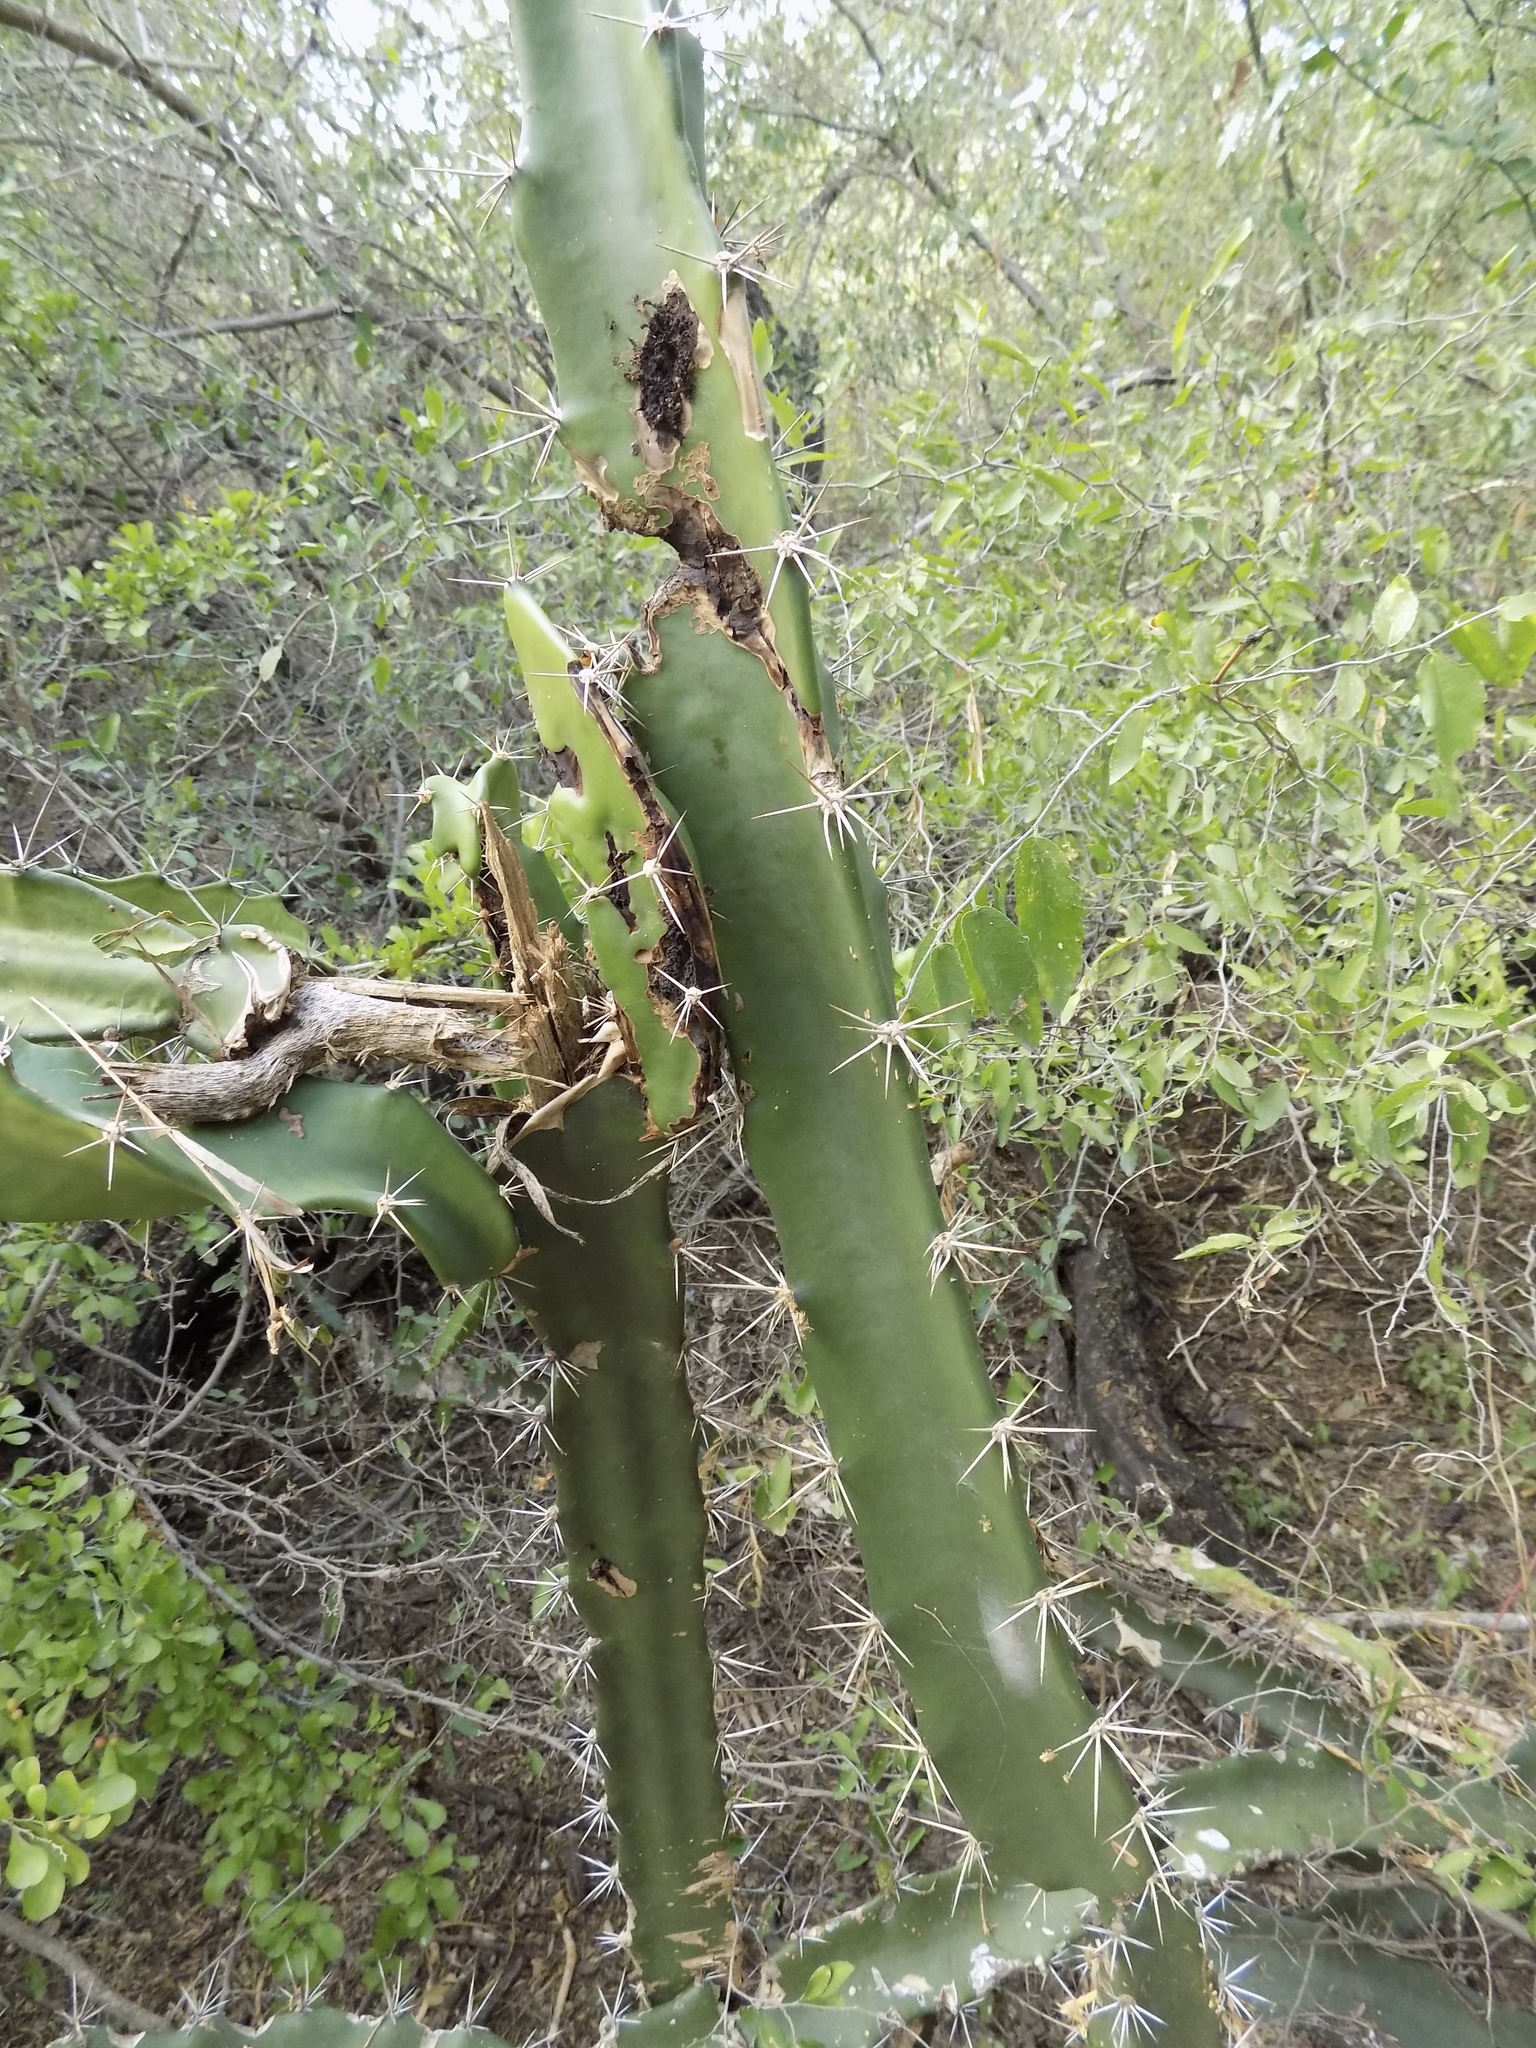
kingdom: Plantae
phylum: Tracheophyta
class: Magnoliopsida
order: Caryophyllales
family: Cactaceae
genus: Acanthocereus
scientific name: Acanthocereus tetragonus
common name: Triangle cactus
